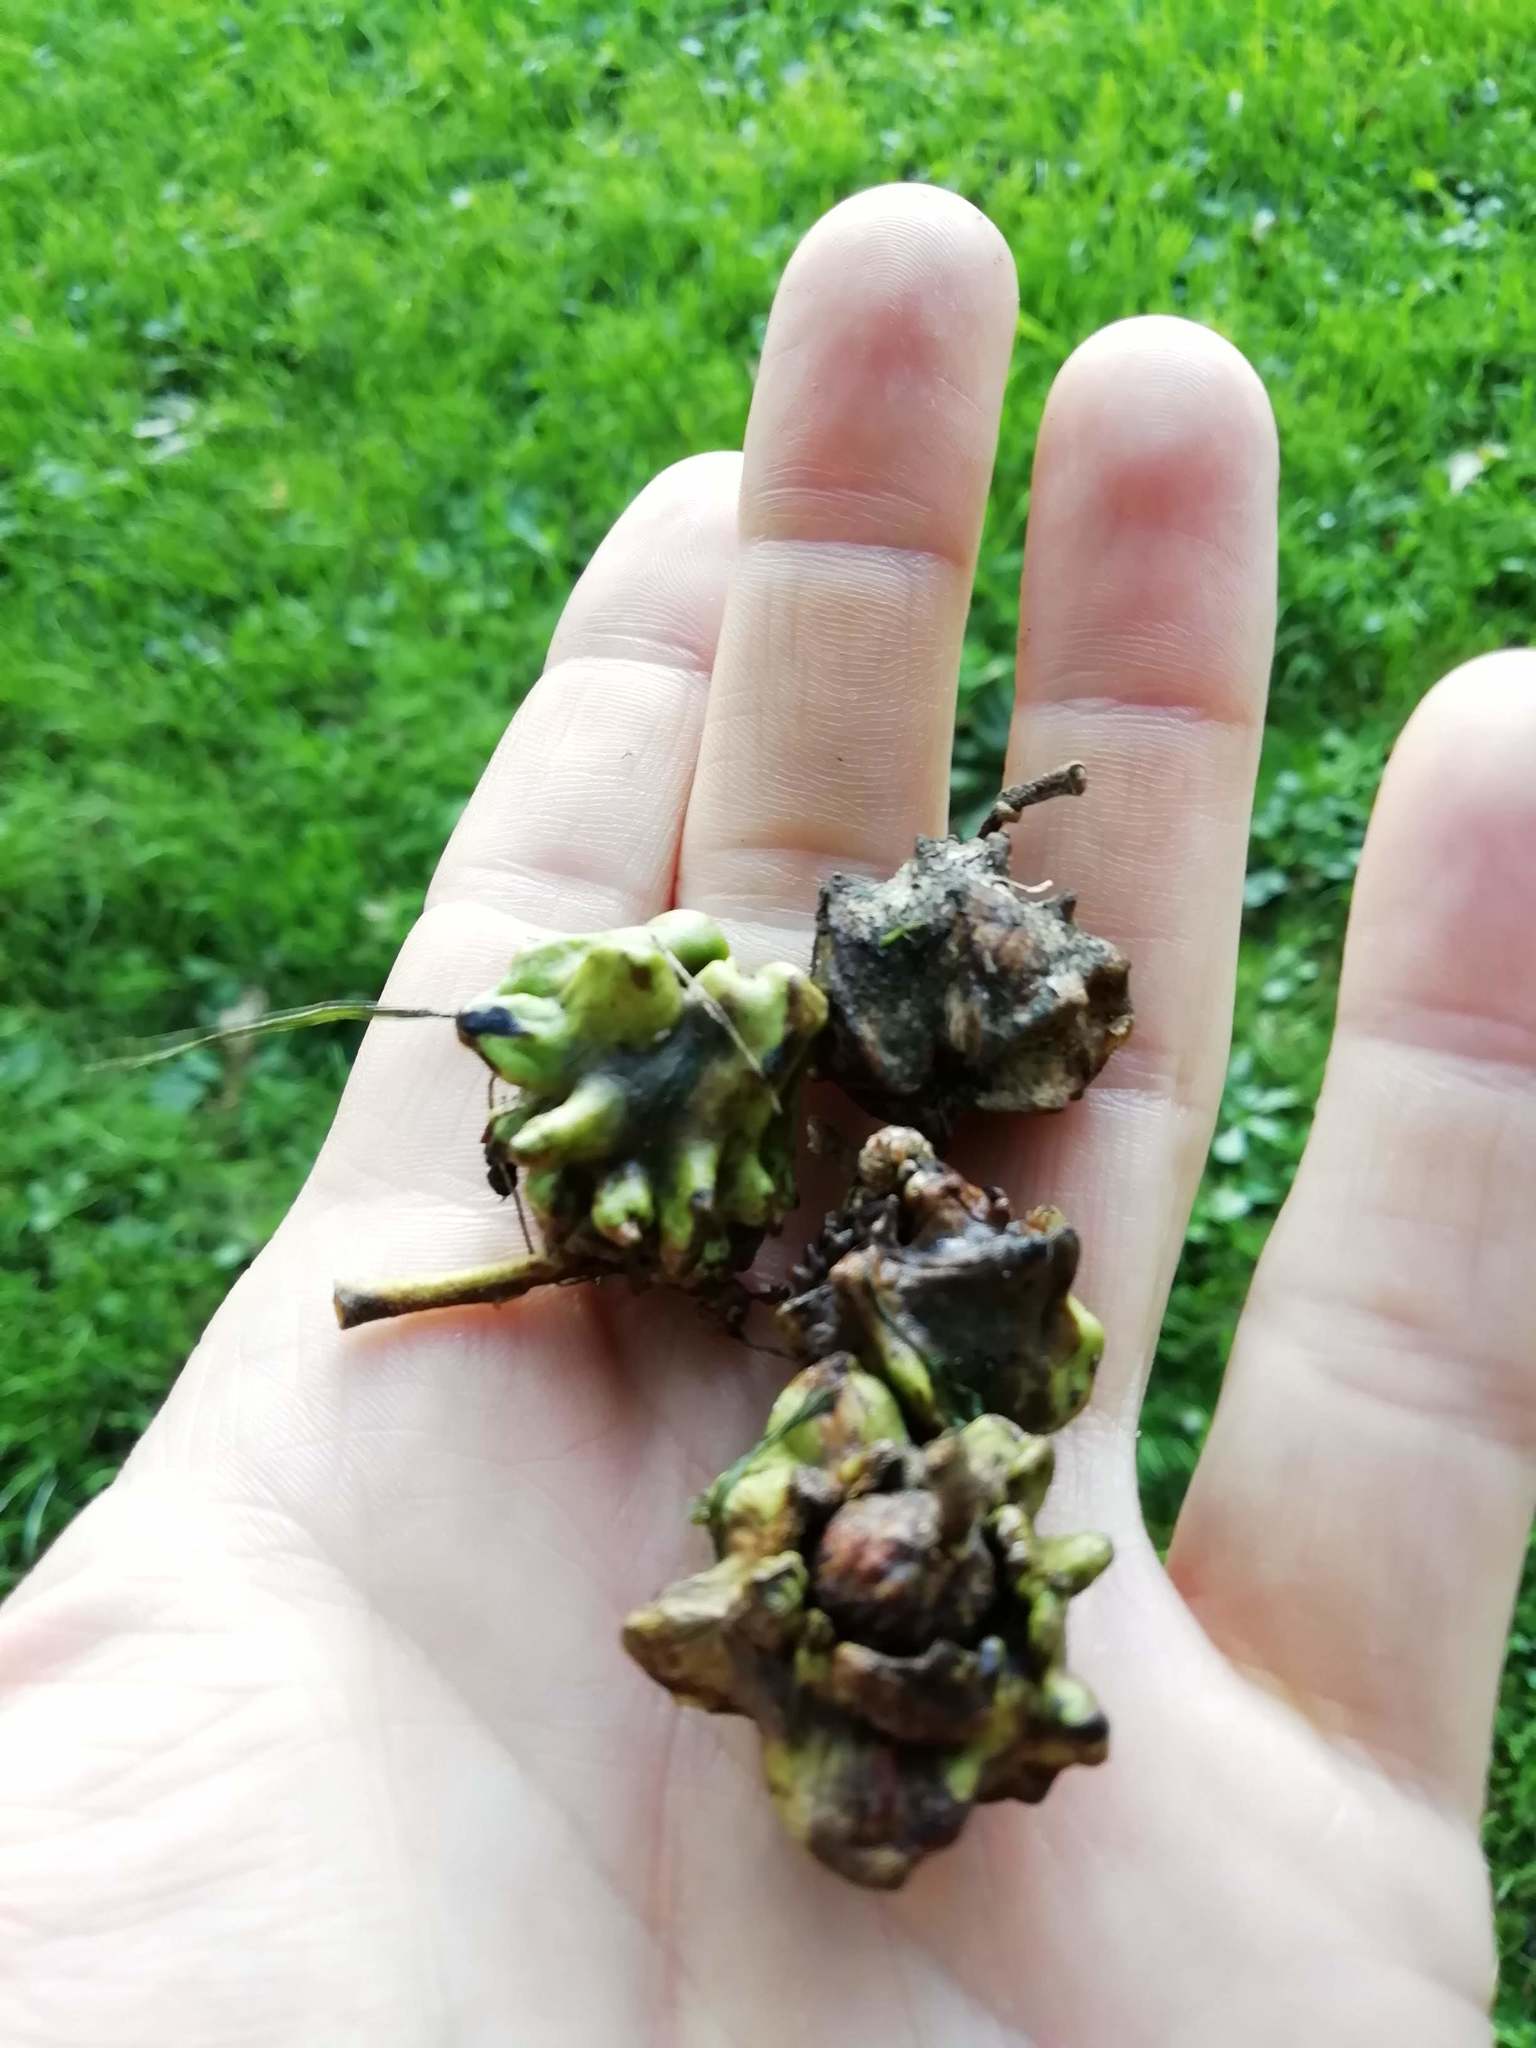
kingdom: Animalia
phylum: Arthropoda
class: Insecta
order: Hymenoptera
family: Cynipidae
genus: Andricus
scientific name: Andricus quercuscalicis
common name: Knopper gall
